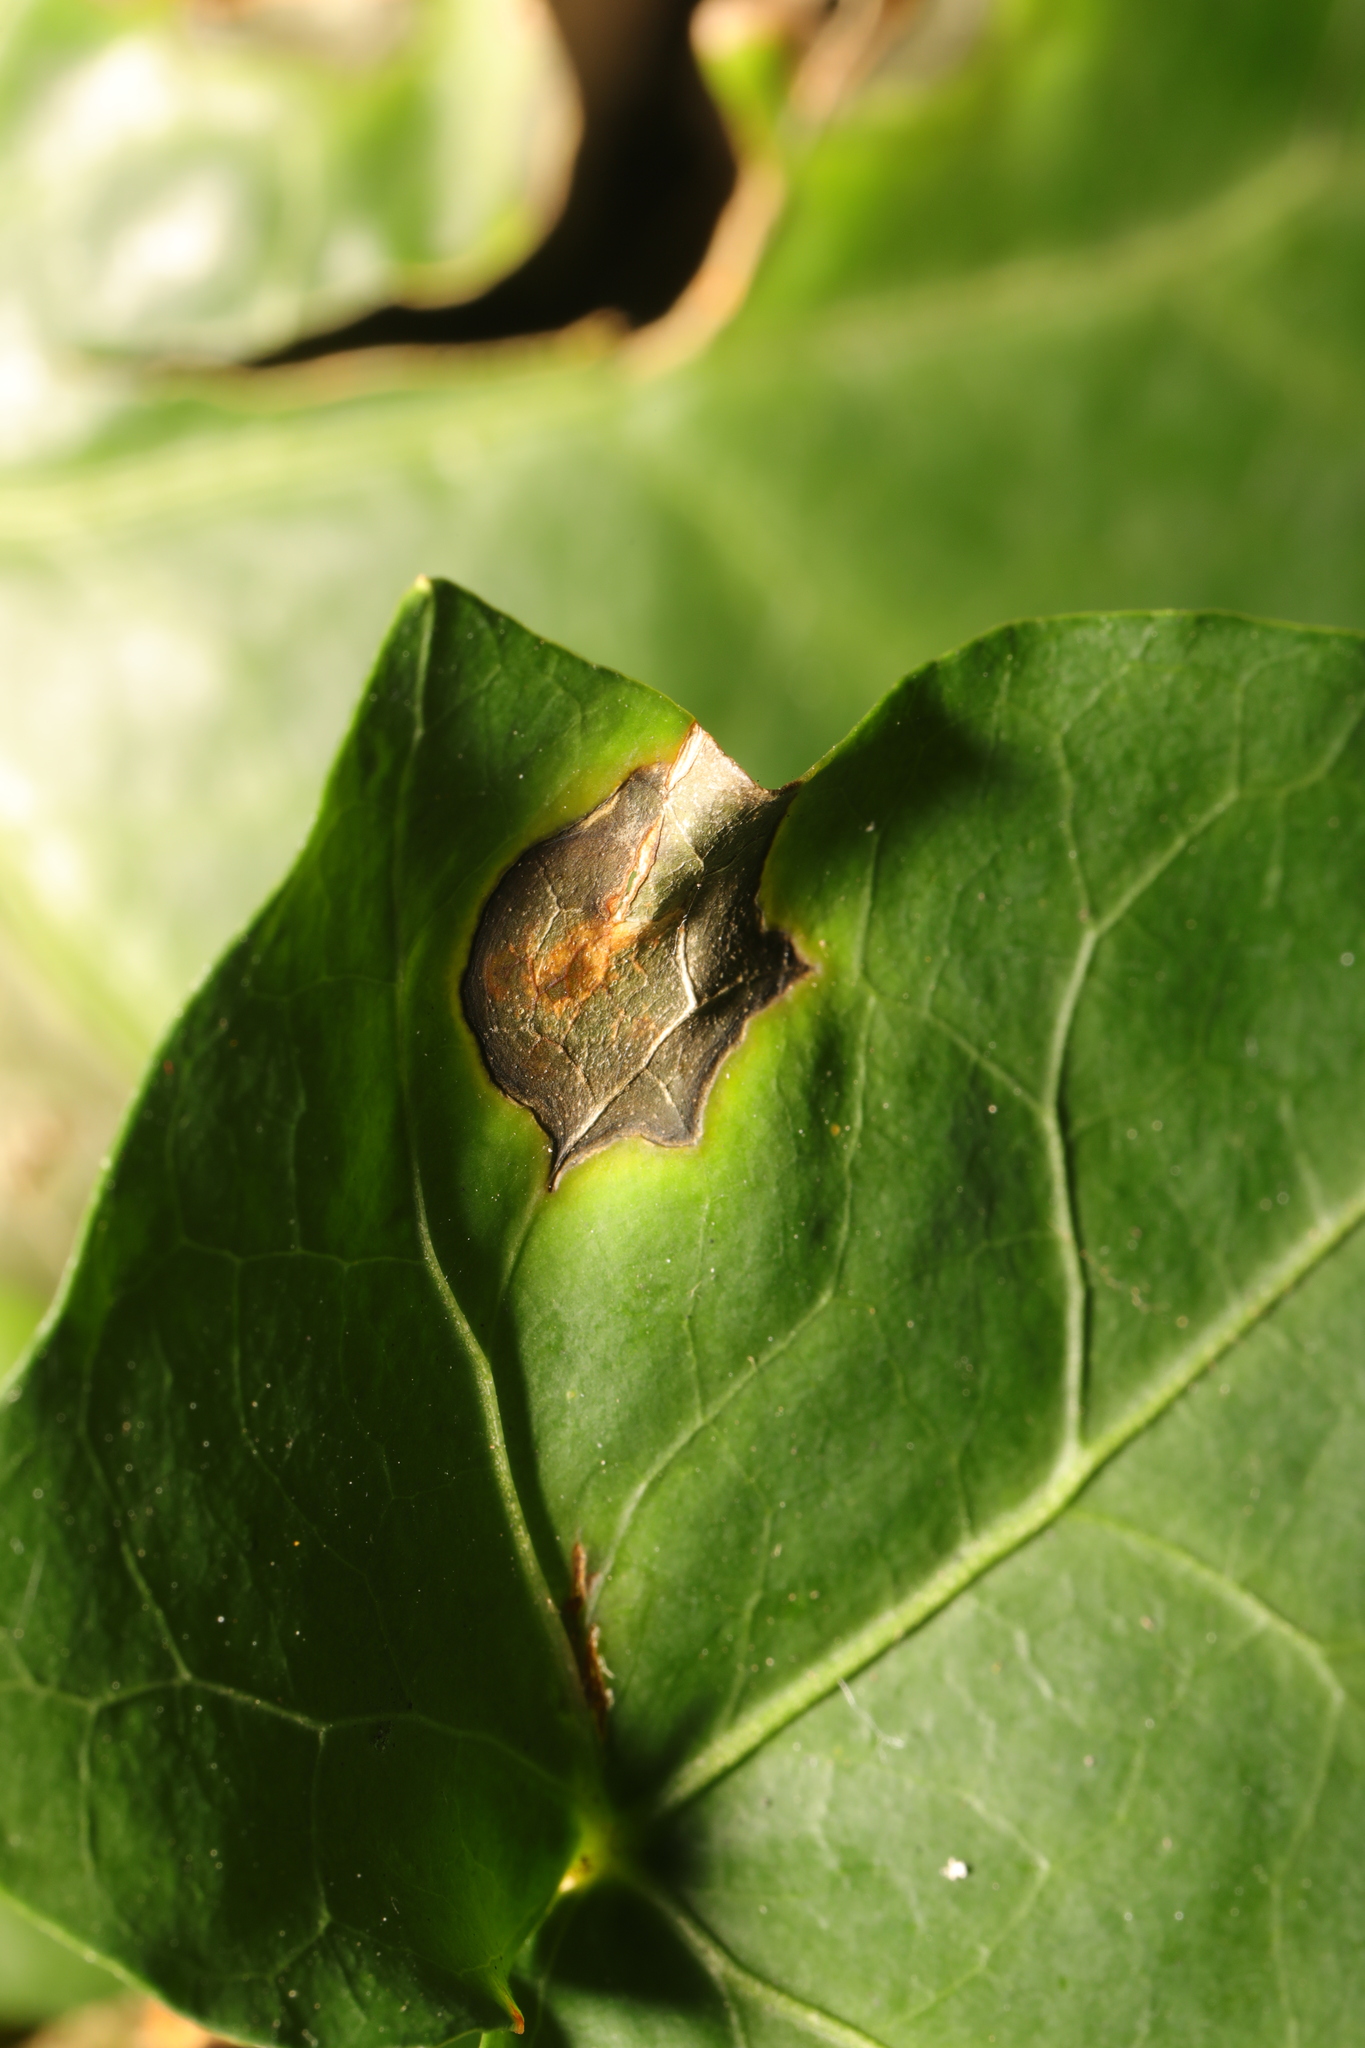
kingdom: Fungi
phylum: Ascomycota
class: Dothideomycetes
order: Pleosporales
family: Didymellaceae
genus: Boeremia
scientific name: Boeremia hedericola
